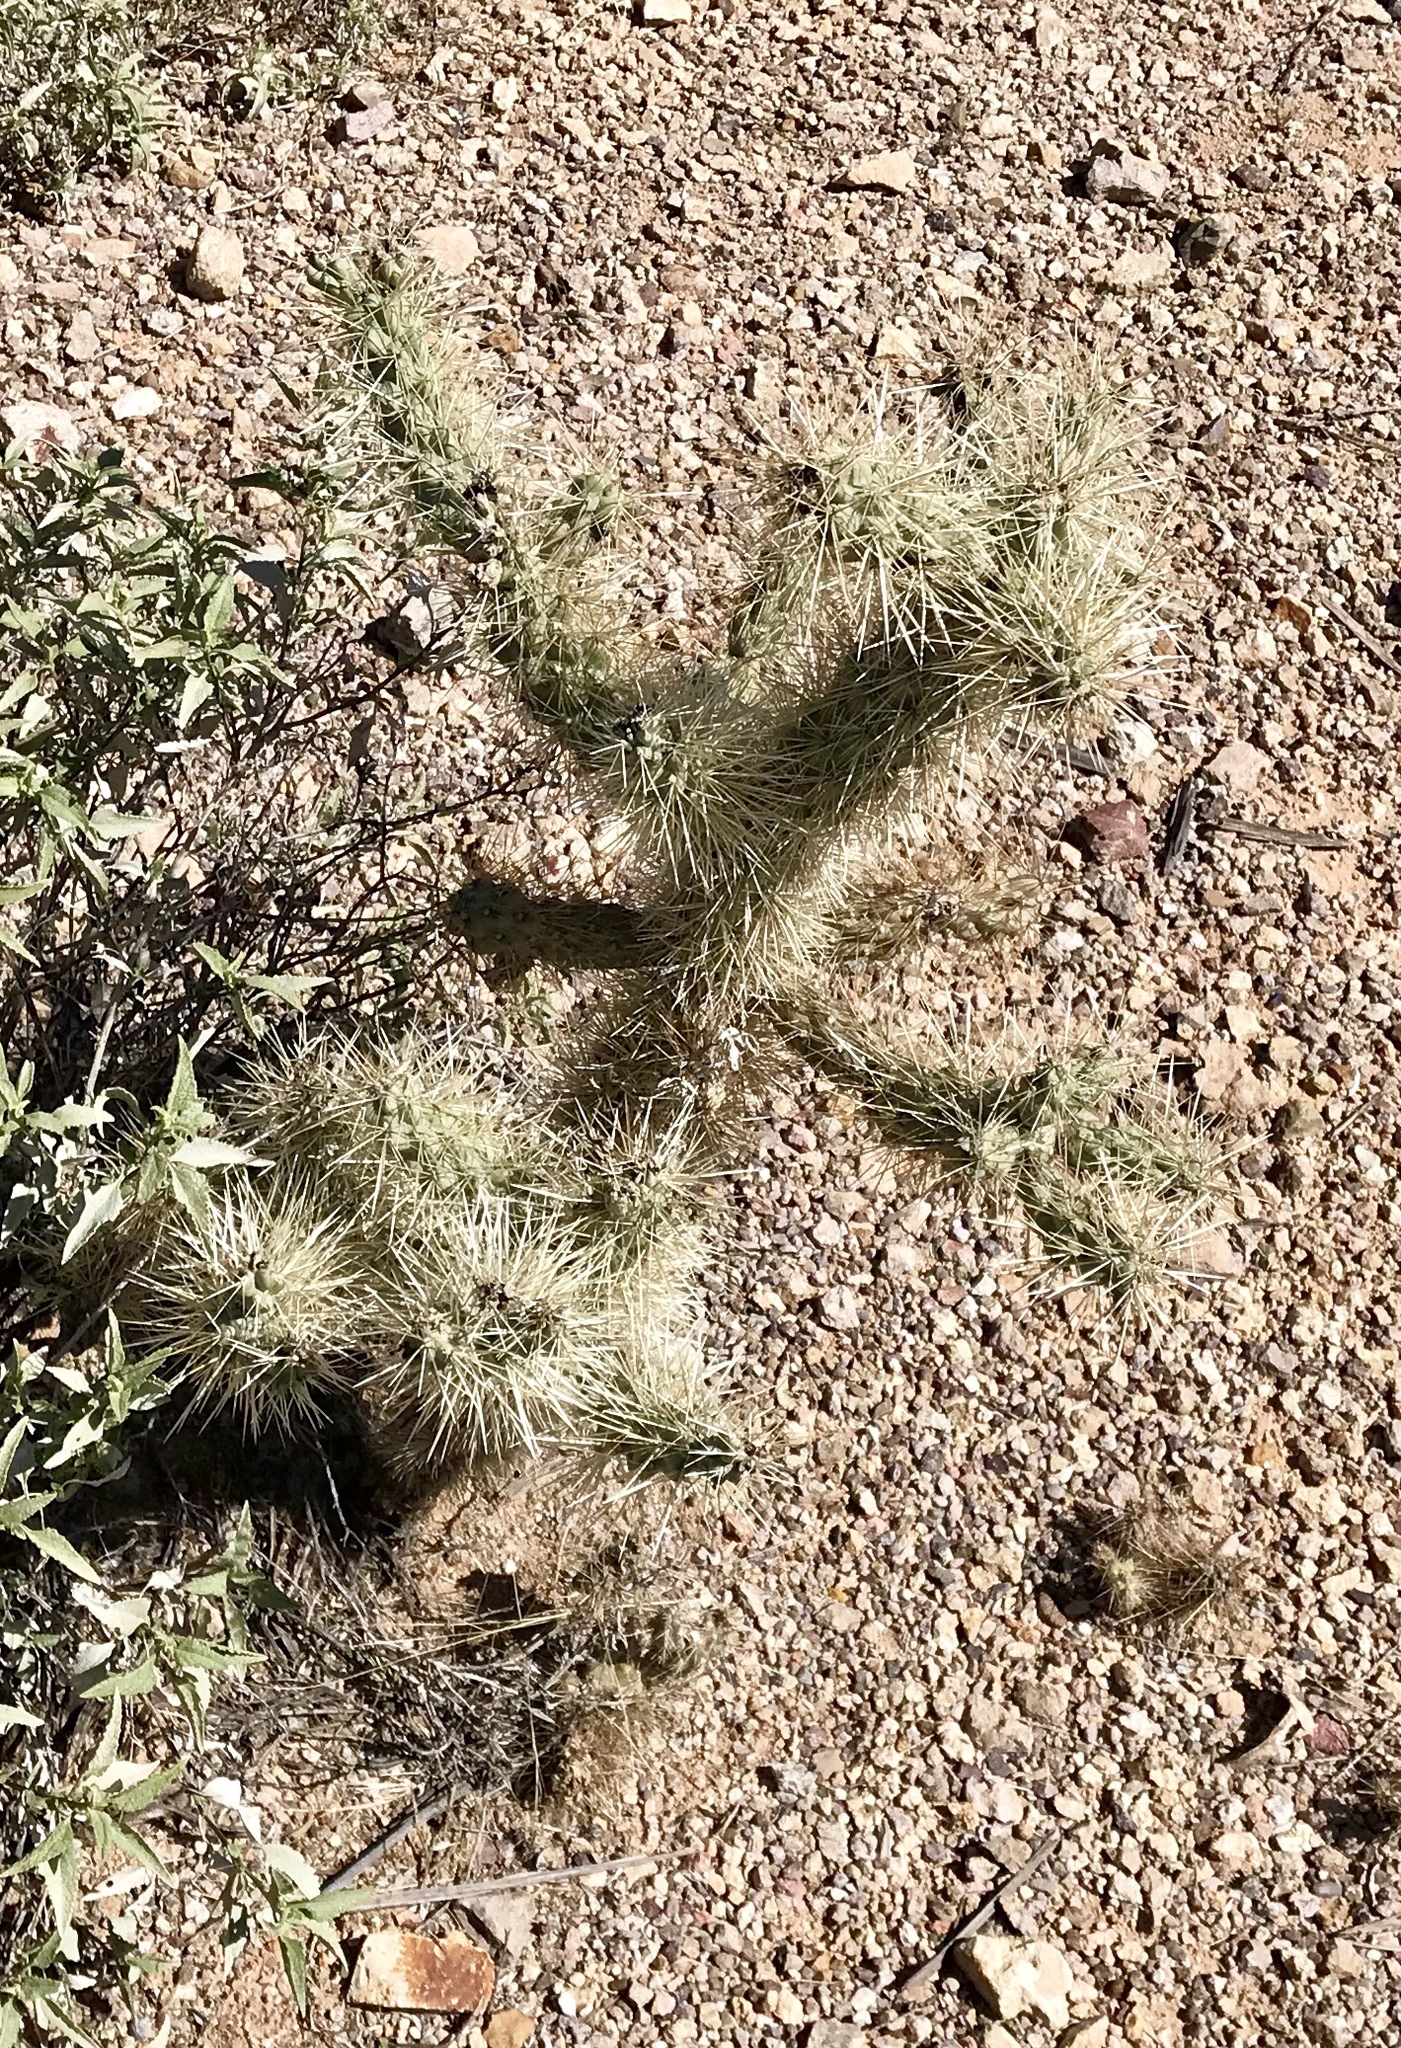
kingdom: Plantae
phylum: Tracheophyta
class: Magnoliopsida
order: Caryophyllales
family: Cactaceae
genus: Cylindropuntia
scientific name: Cylindropuntia fulgida
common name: Jumping cholla
